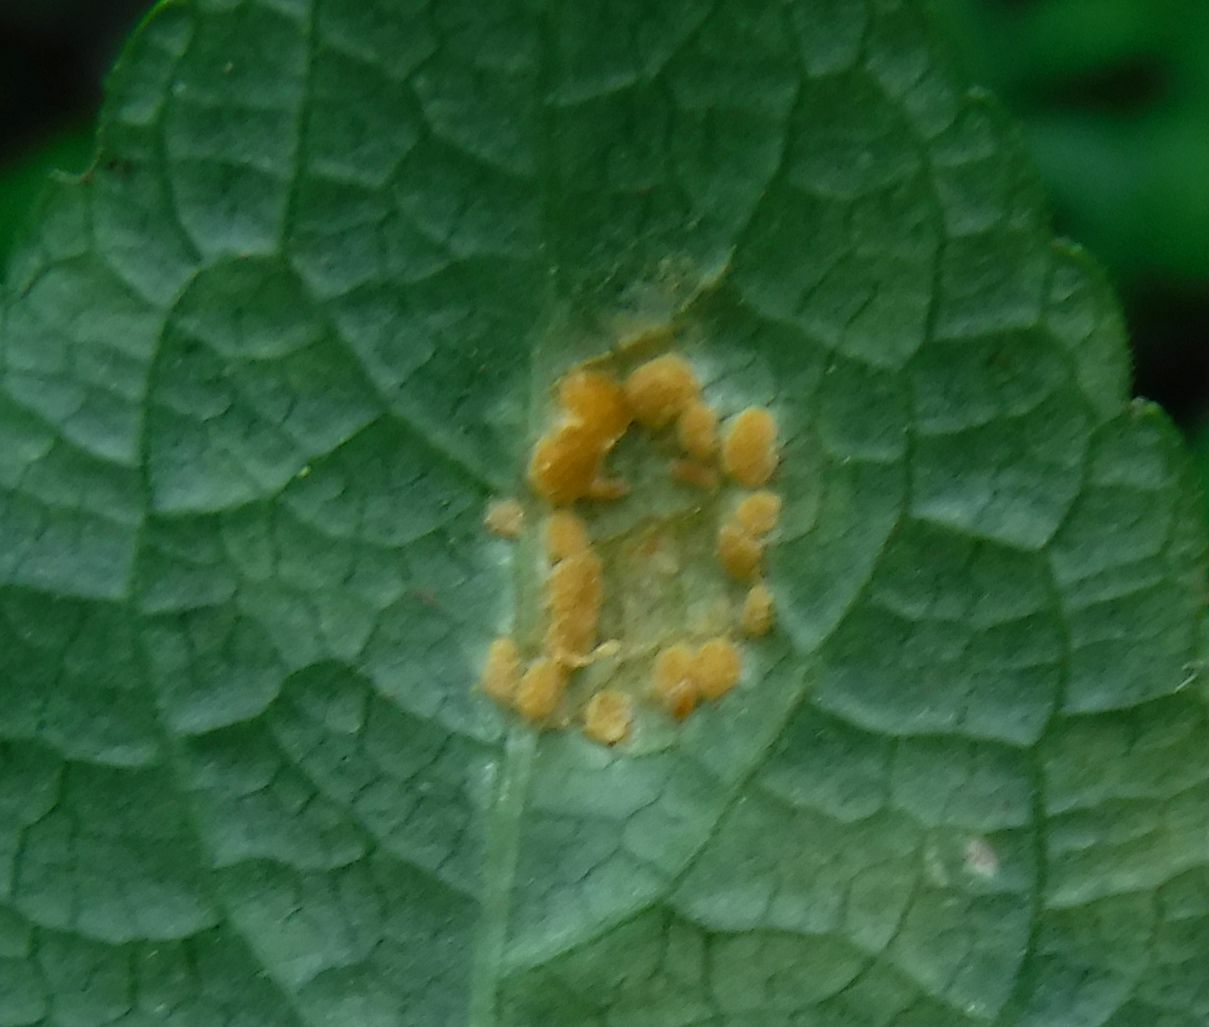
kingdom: Fungi
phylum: Basidiomycota
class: Pucciniomycetes
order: Pucciniales
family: Melampsoraceae
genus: Melampsora
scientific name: Melampsora rostrupii
